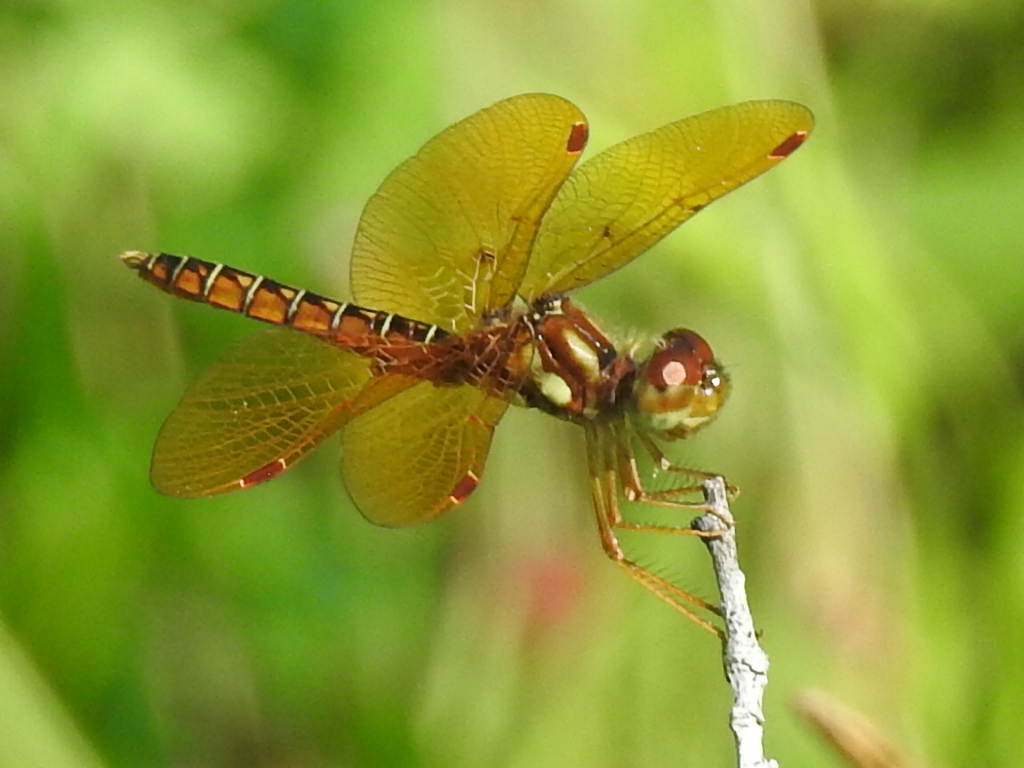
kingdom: Animalia
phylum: Arthropoda
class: Insecta
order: Odonata
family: Libellulidae
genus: Perithemis
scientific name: Perithemis tenera
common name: Eastern amberwing
